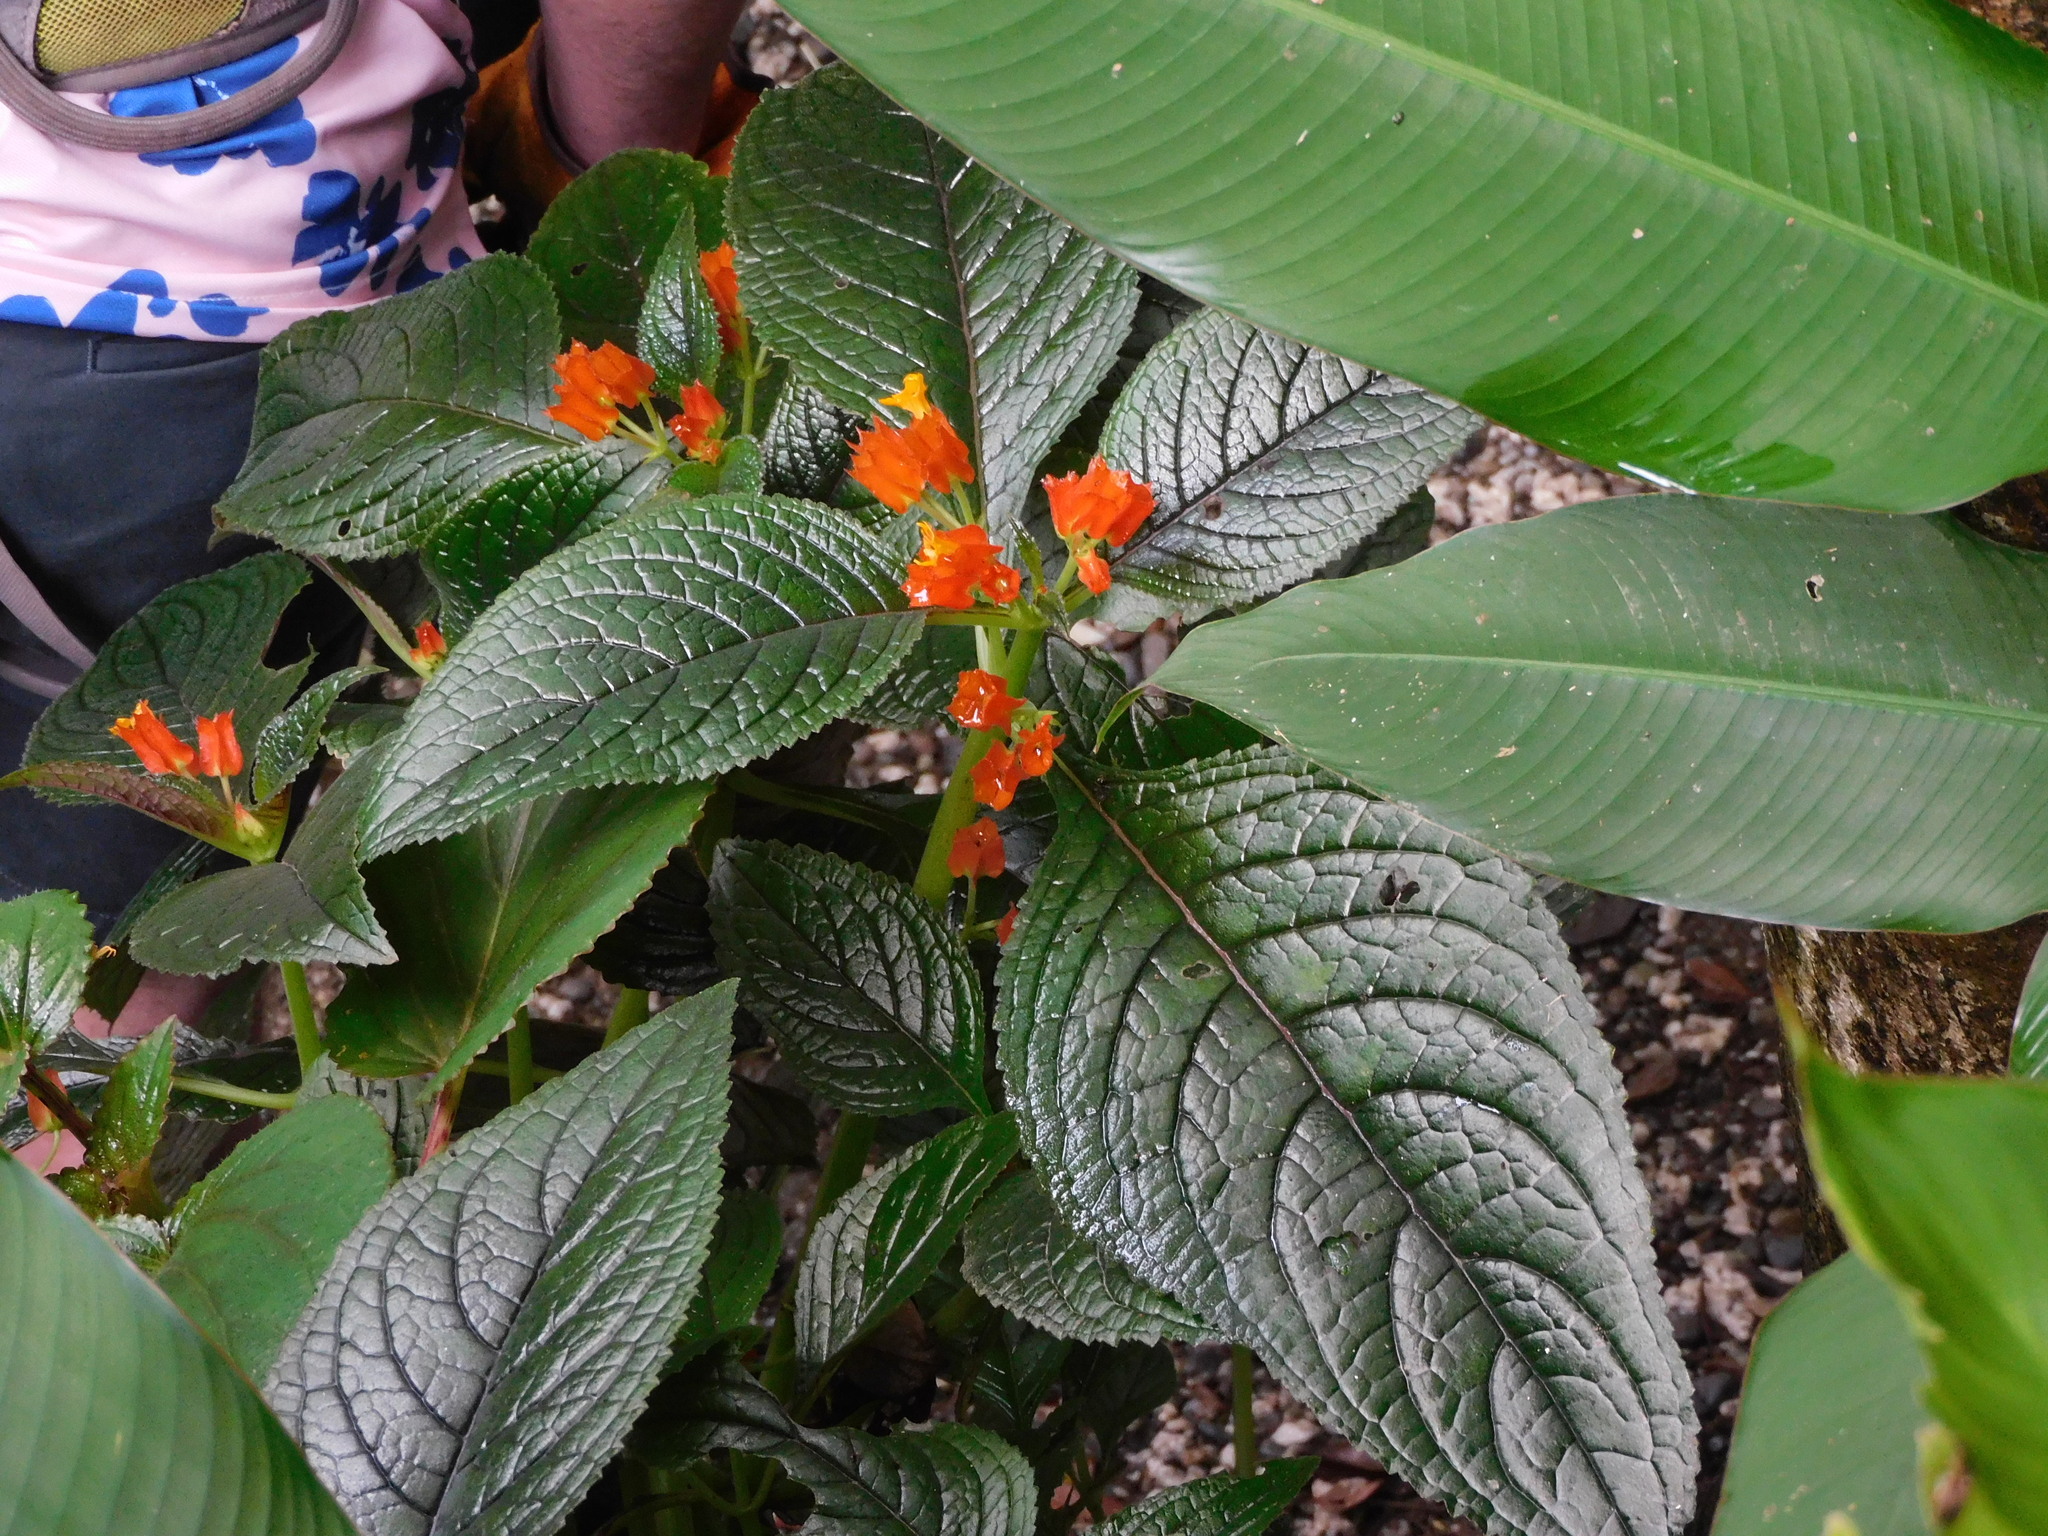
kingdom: Plantae
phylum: Tracheophyta
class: Magnoliopsida
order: Lamiales
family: Gesneriaceae
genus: Chrysothemis
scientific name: Chrysothemis pulchella
